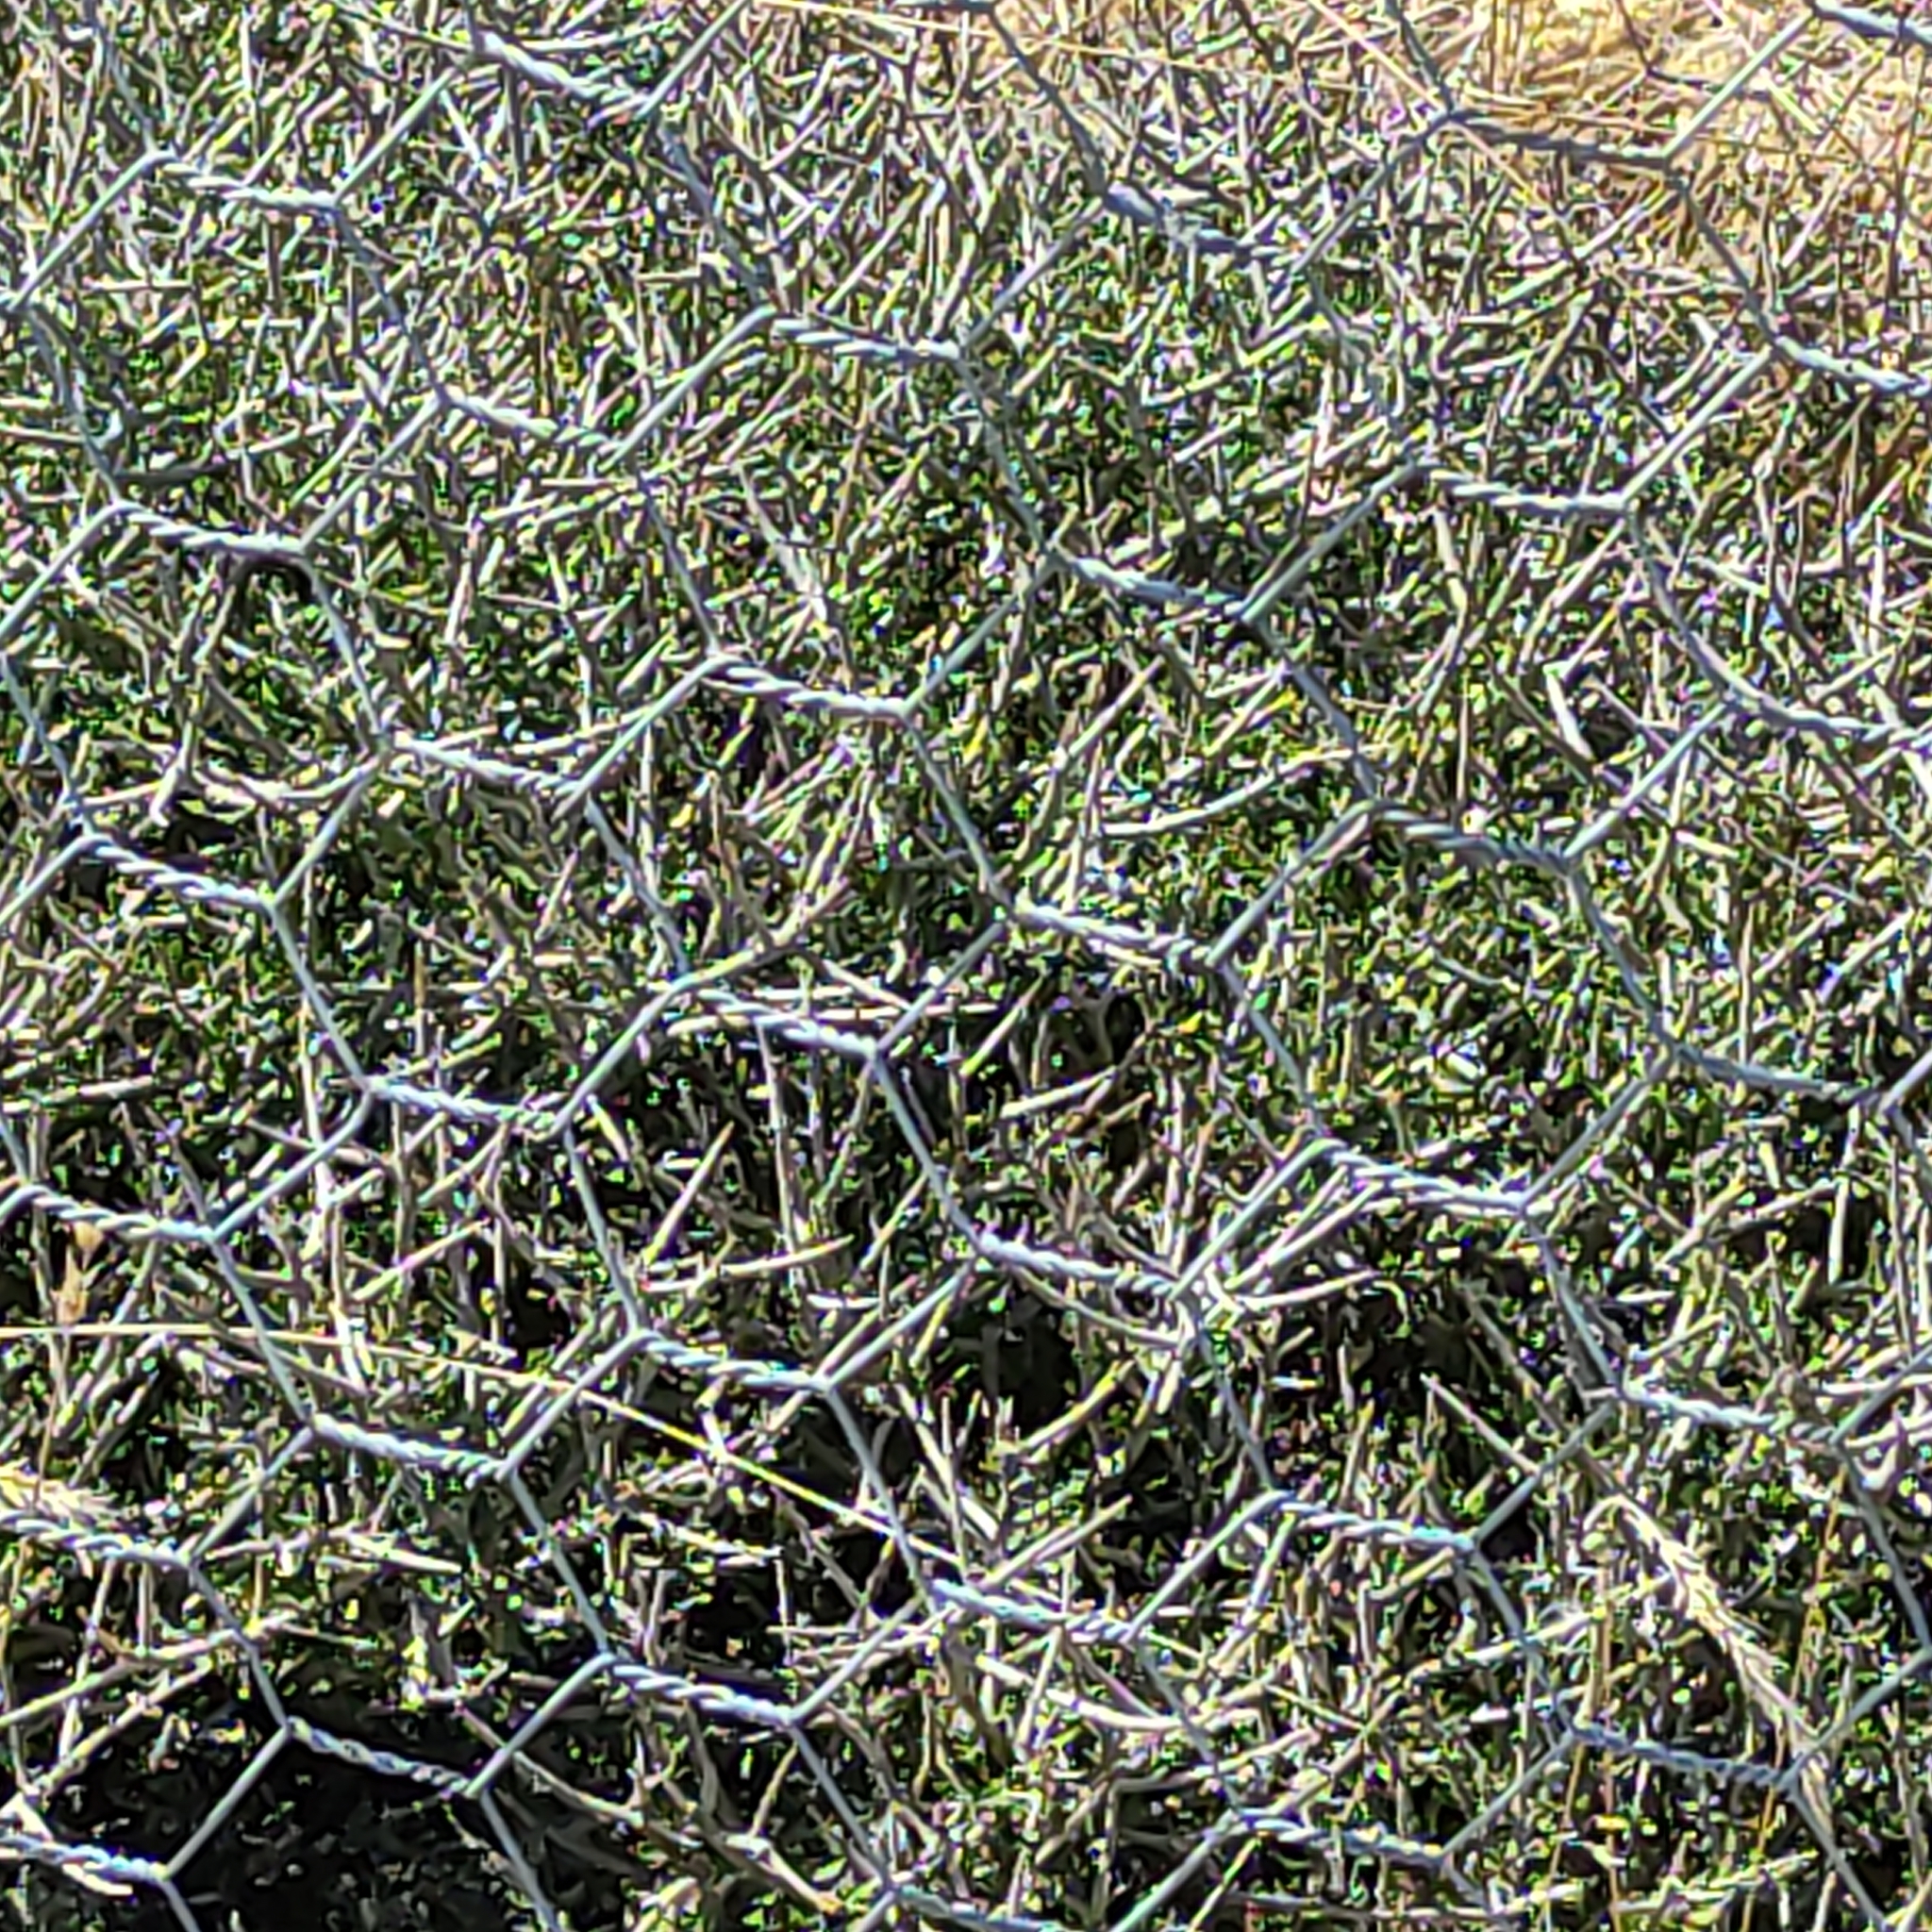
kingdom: Plantae
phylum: Tracheophyta
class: Magnoliopsida
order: Malpighiales
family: Violaceae
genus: Melicytus
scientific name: Melicytus alpinus
